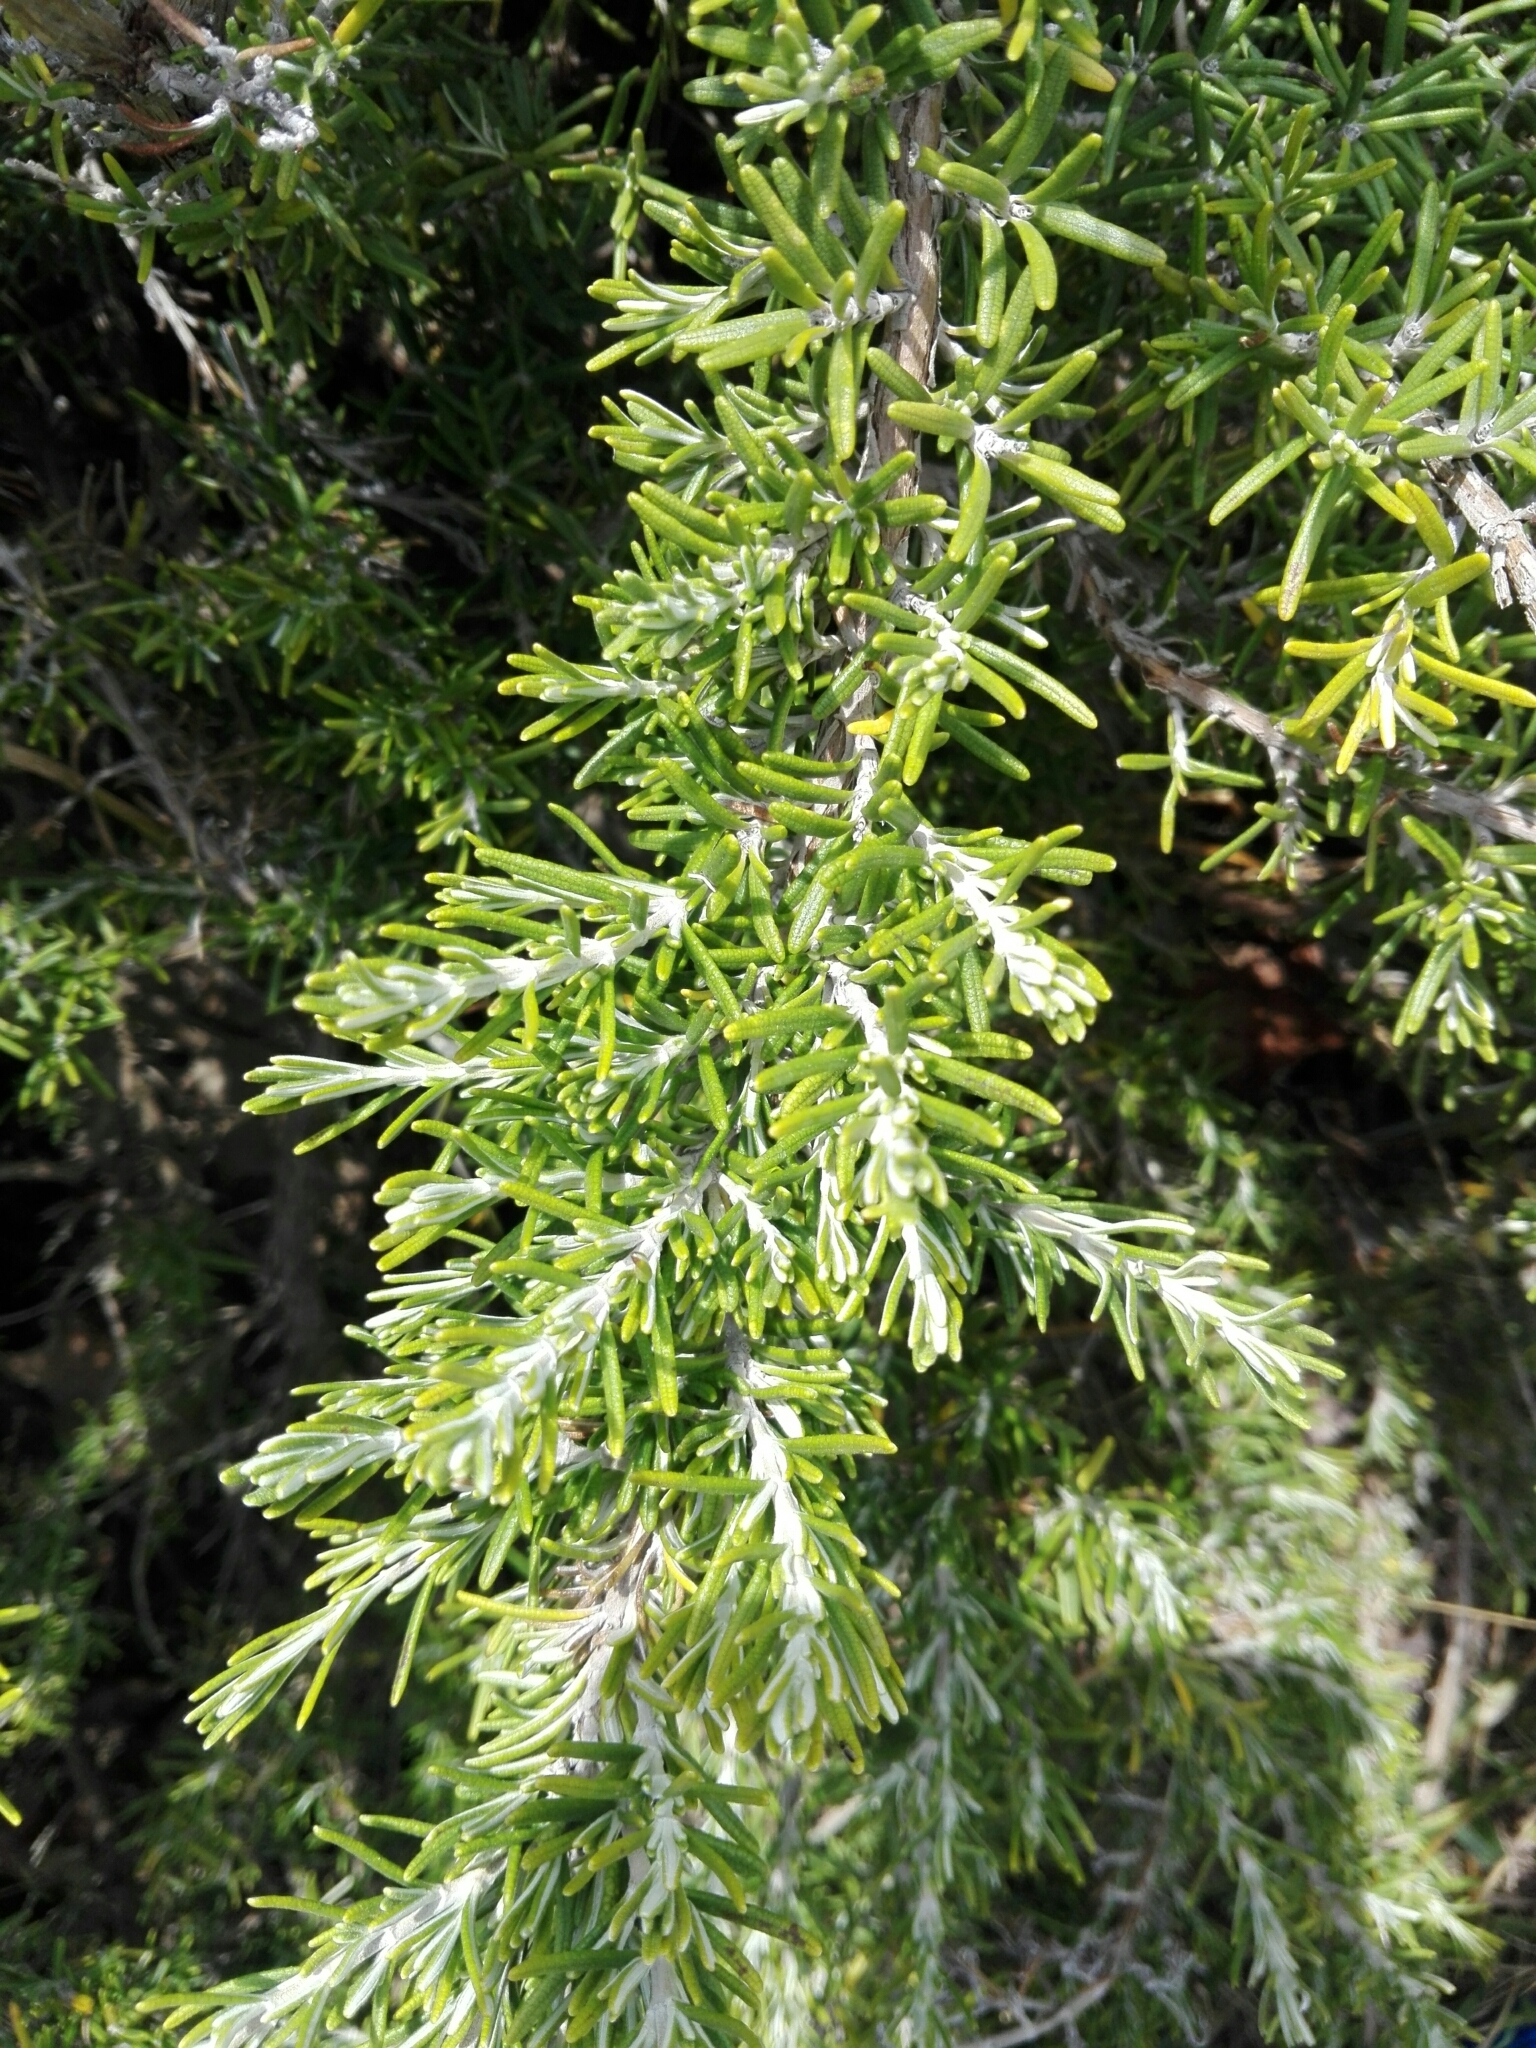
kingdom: Plantae
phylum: Tracheophyta
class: Magnoliopsida
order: Lamiales
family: Lamiaceae
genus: Salvia
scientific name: Salvia rosmarinus
